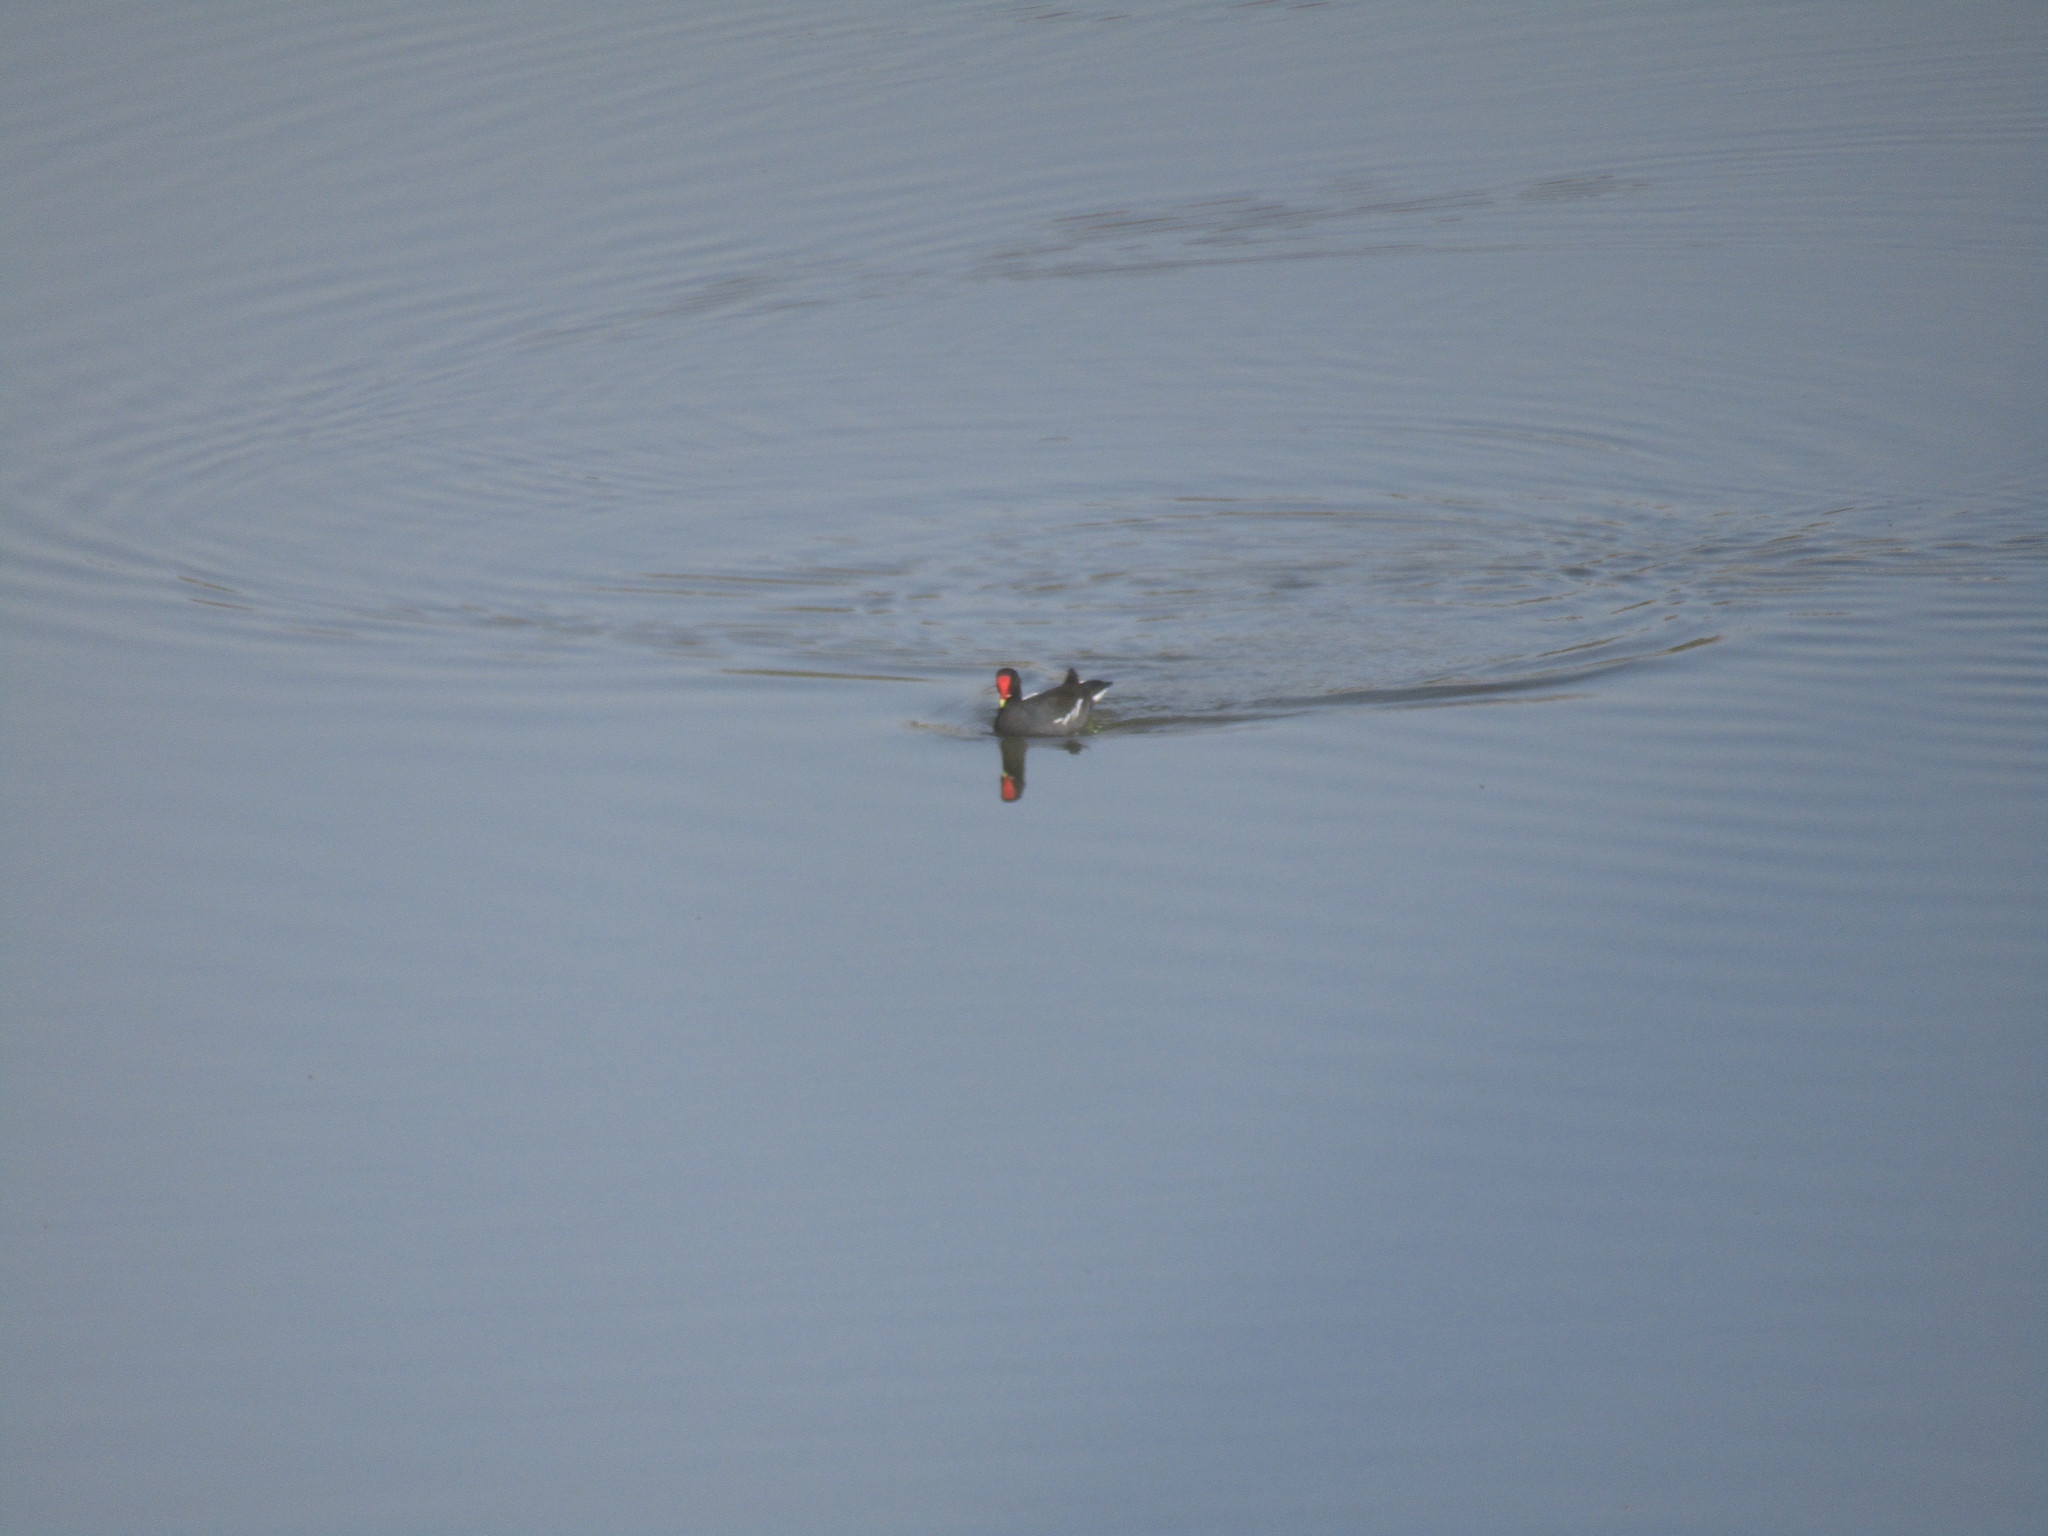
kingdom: Animalia
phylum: Chordata
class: Aves
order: Gruiformes
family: Rallidae
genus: Gallinula
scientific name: Gallinula chloropus
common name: Common moorhen
